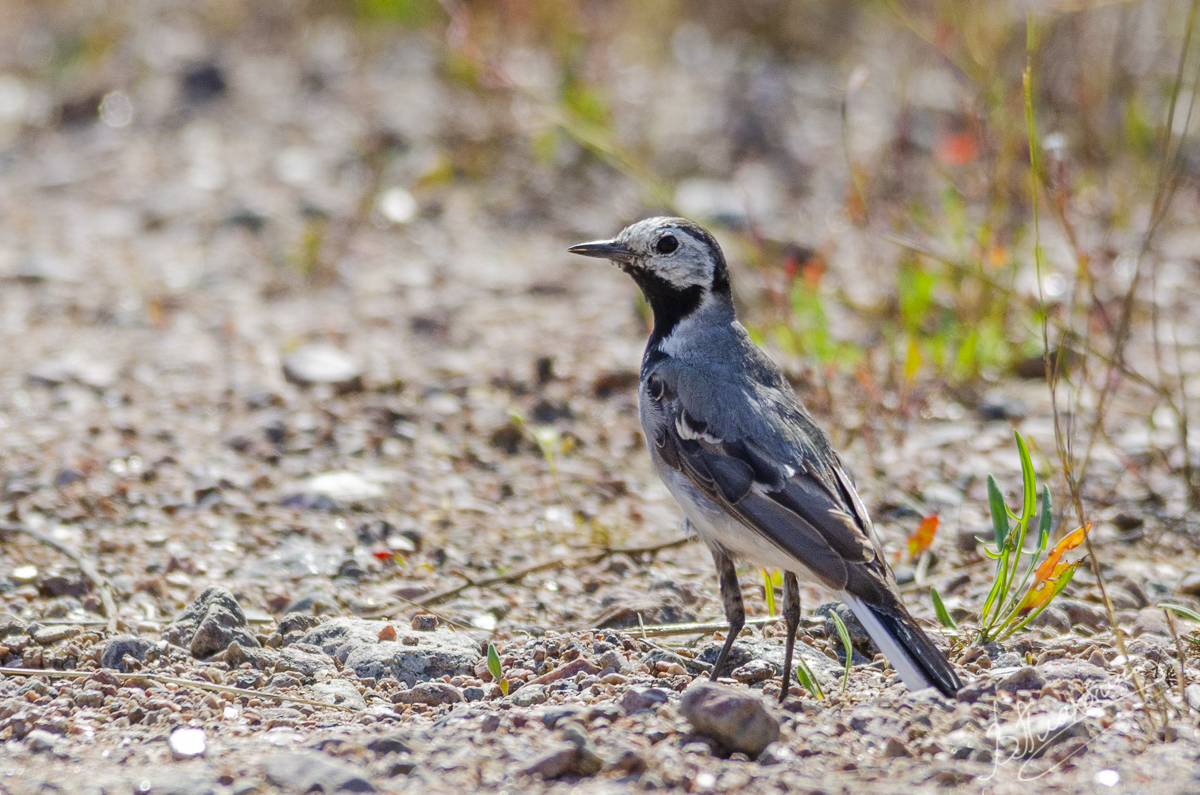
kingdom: Animalia
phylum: Chordata
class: Aves
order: Passeriformes
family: Motacillidae
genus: Motacilla
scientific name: Motacilla alba
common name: White wagtail
